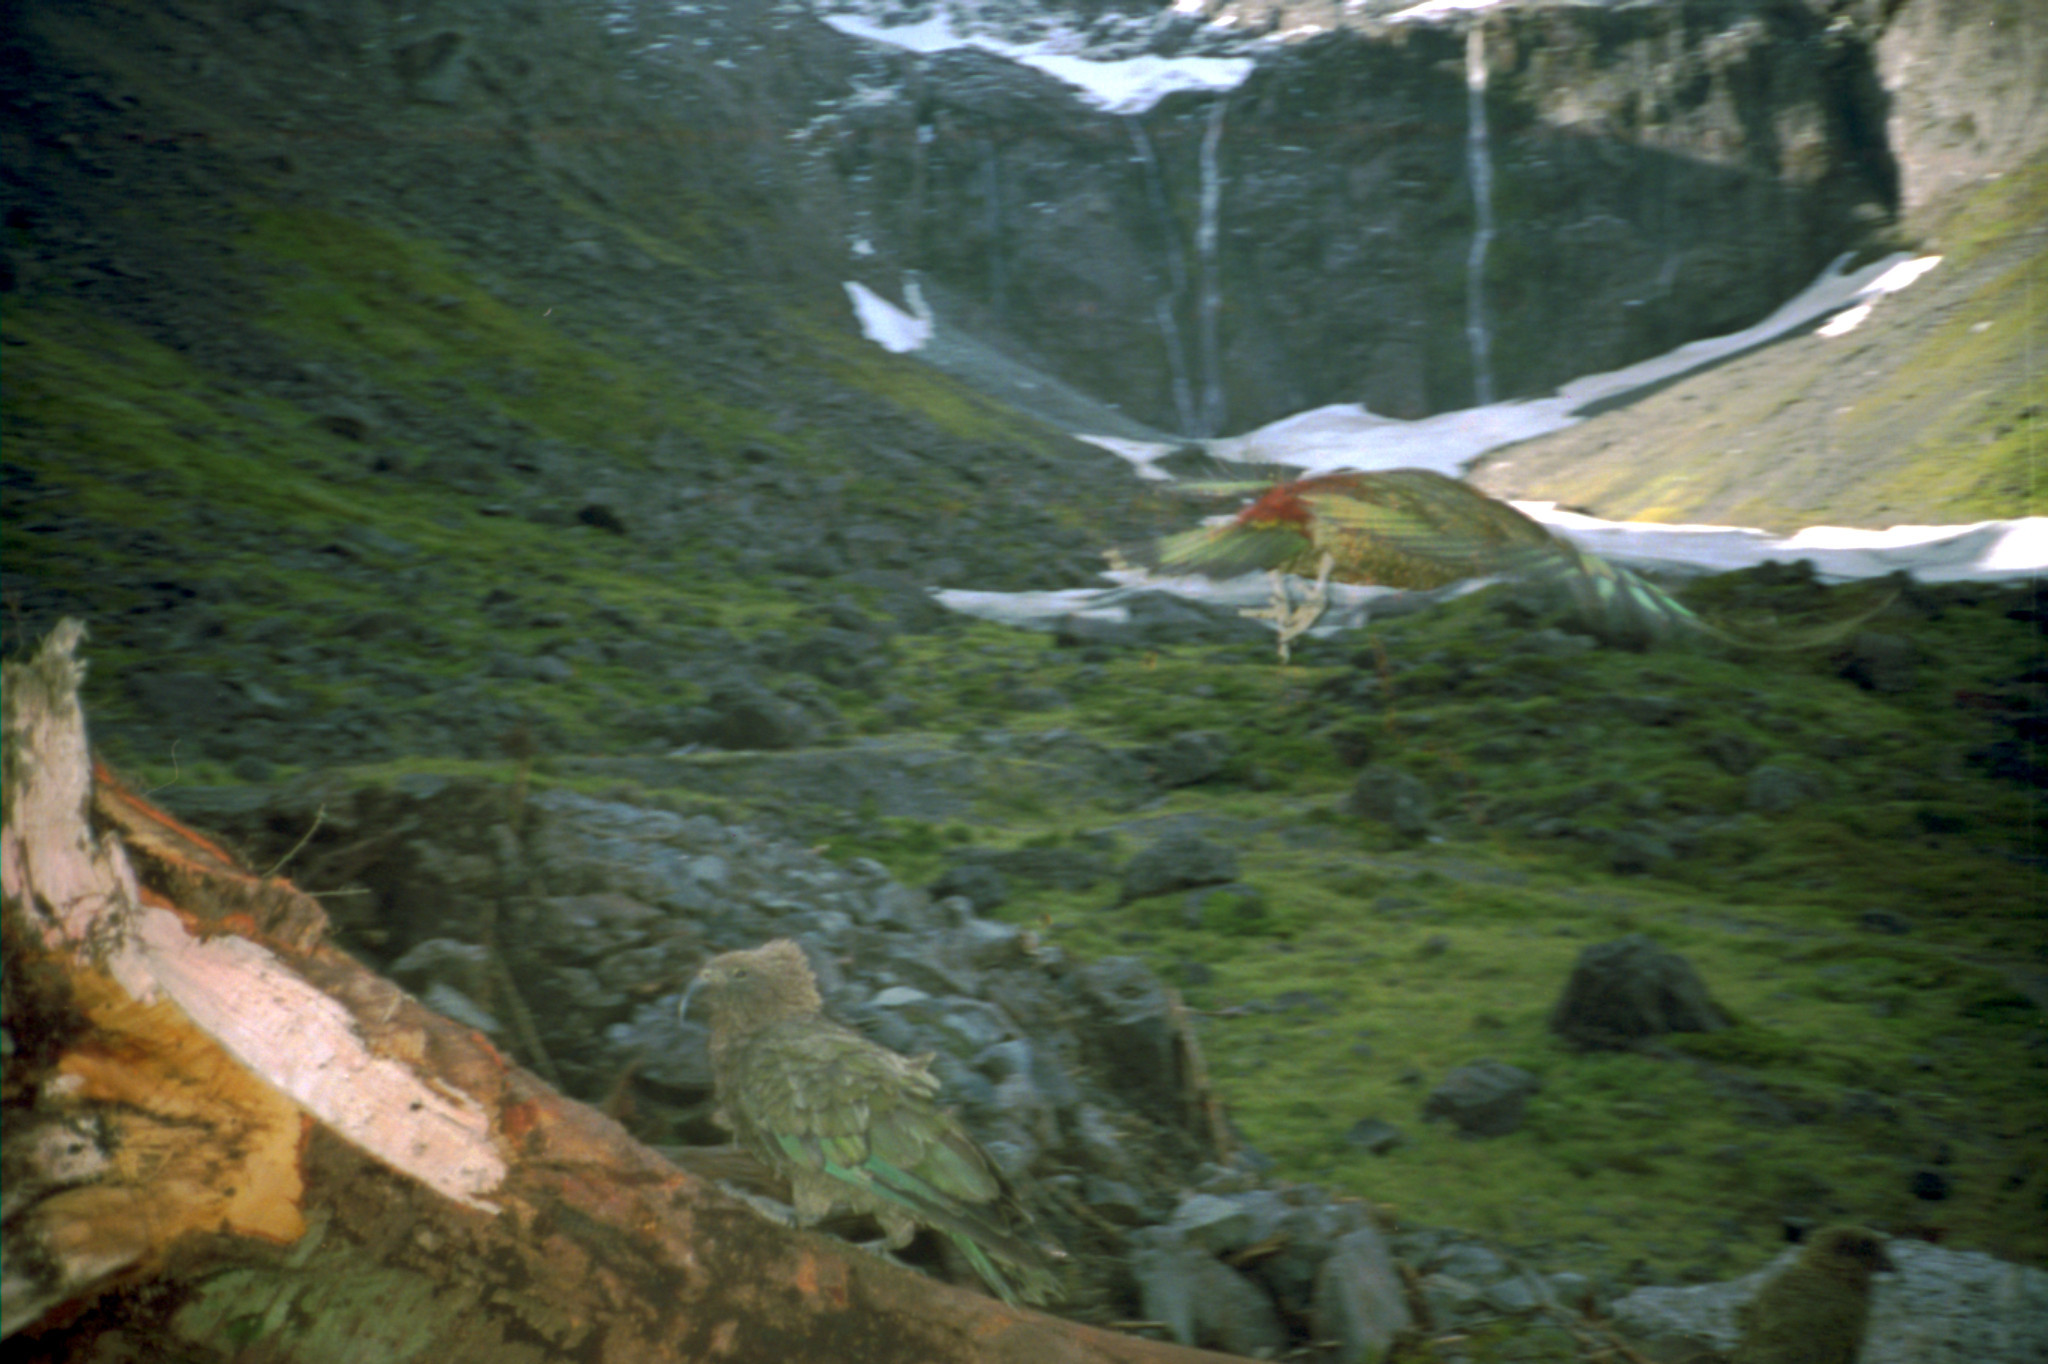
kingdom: Animalia
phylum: Chordata
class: Aves
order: Psittaciformes
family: Psittacidae
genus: Nestor
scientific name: Nestor notabilis
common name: Kea
